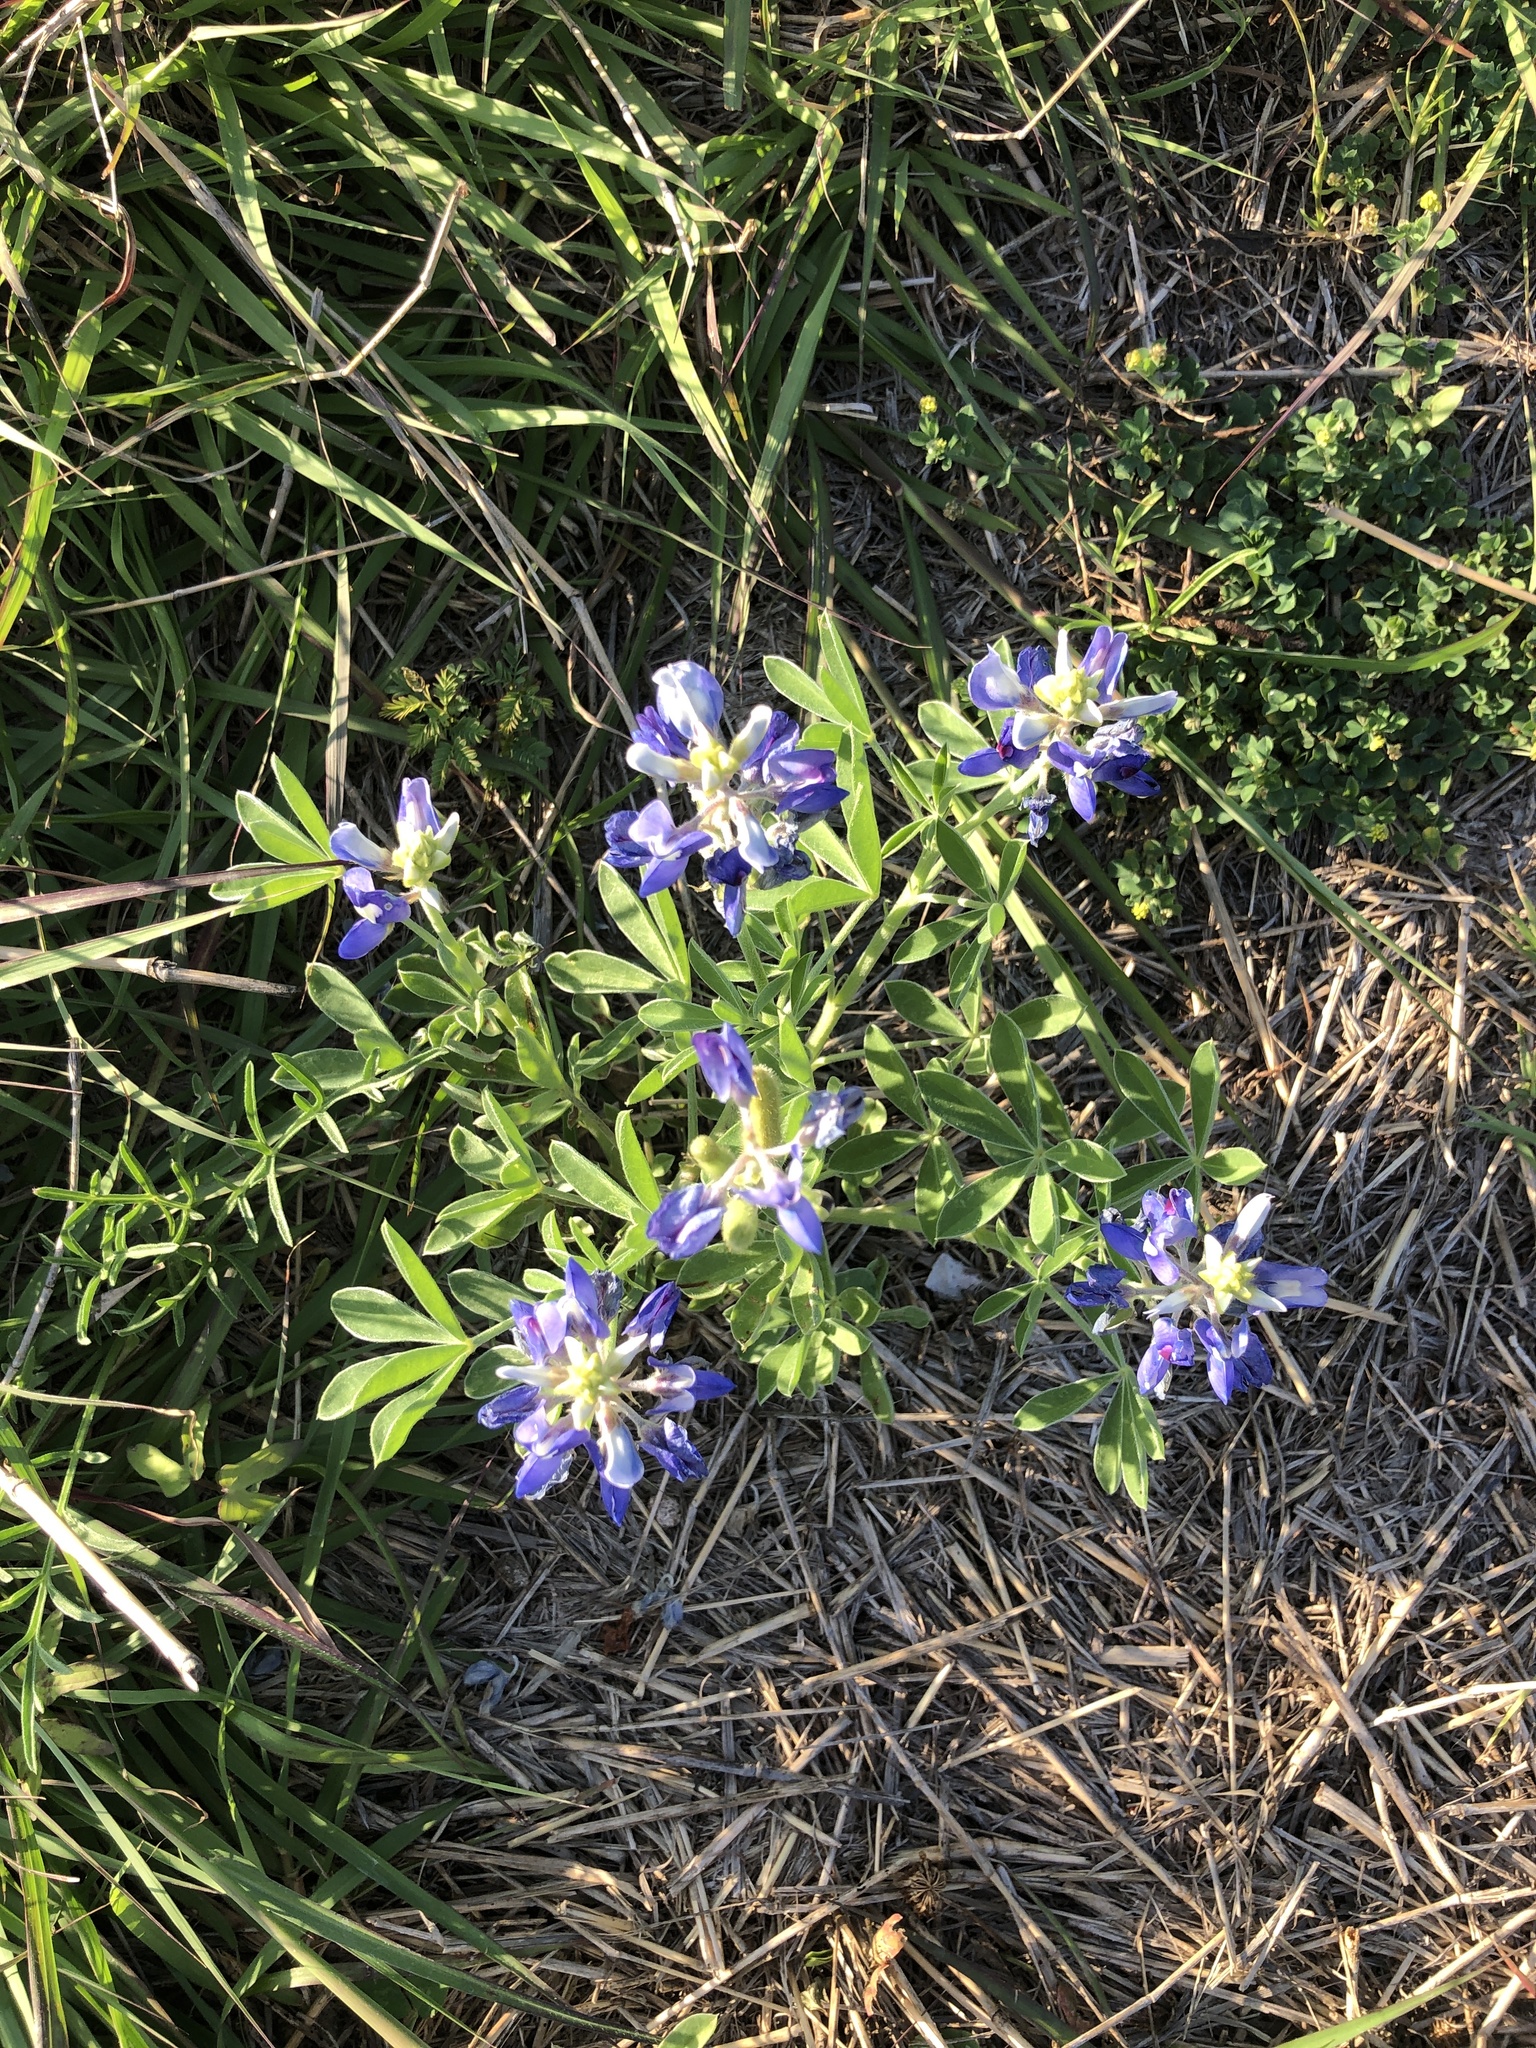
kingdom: Plantae
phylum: Tracheophyta
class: Magnoliopsida
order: Fabales
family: Fabaceae
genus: Lupinus
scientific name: Lupinus texensis
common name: Texas bluebonnet
